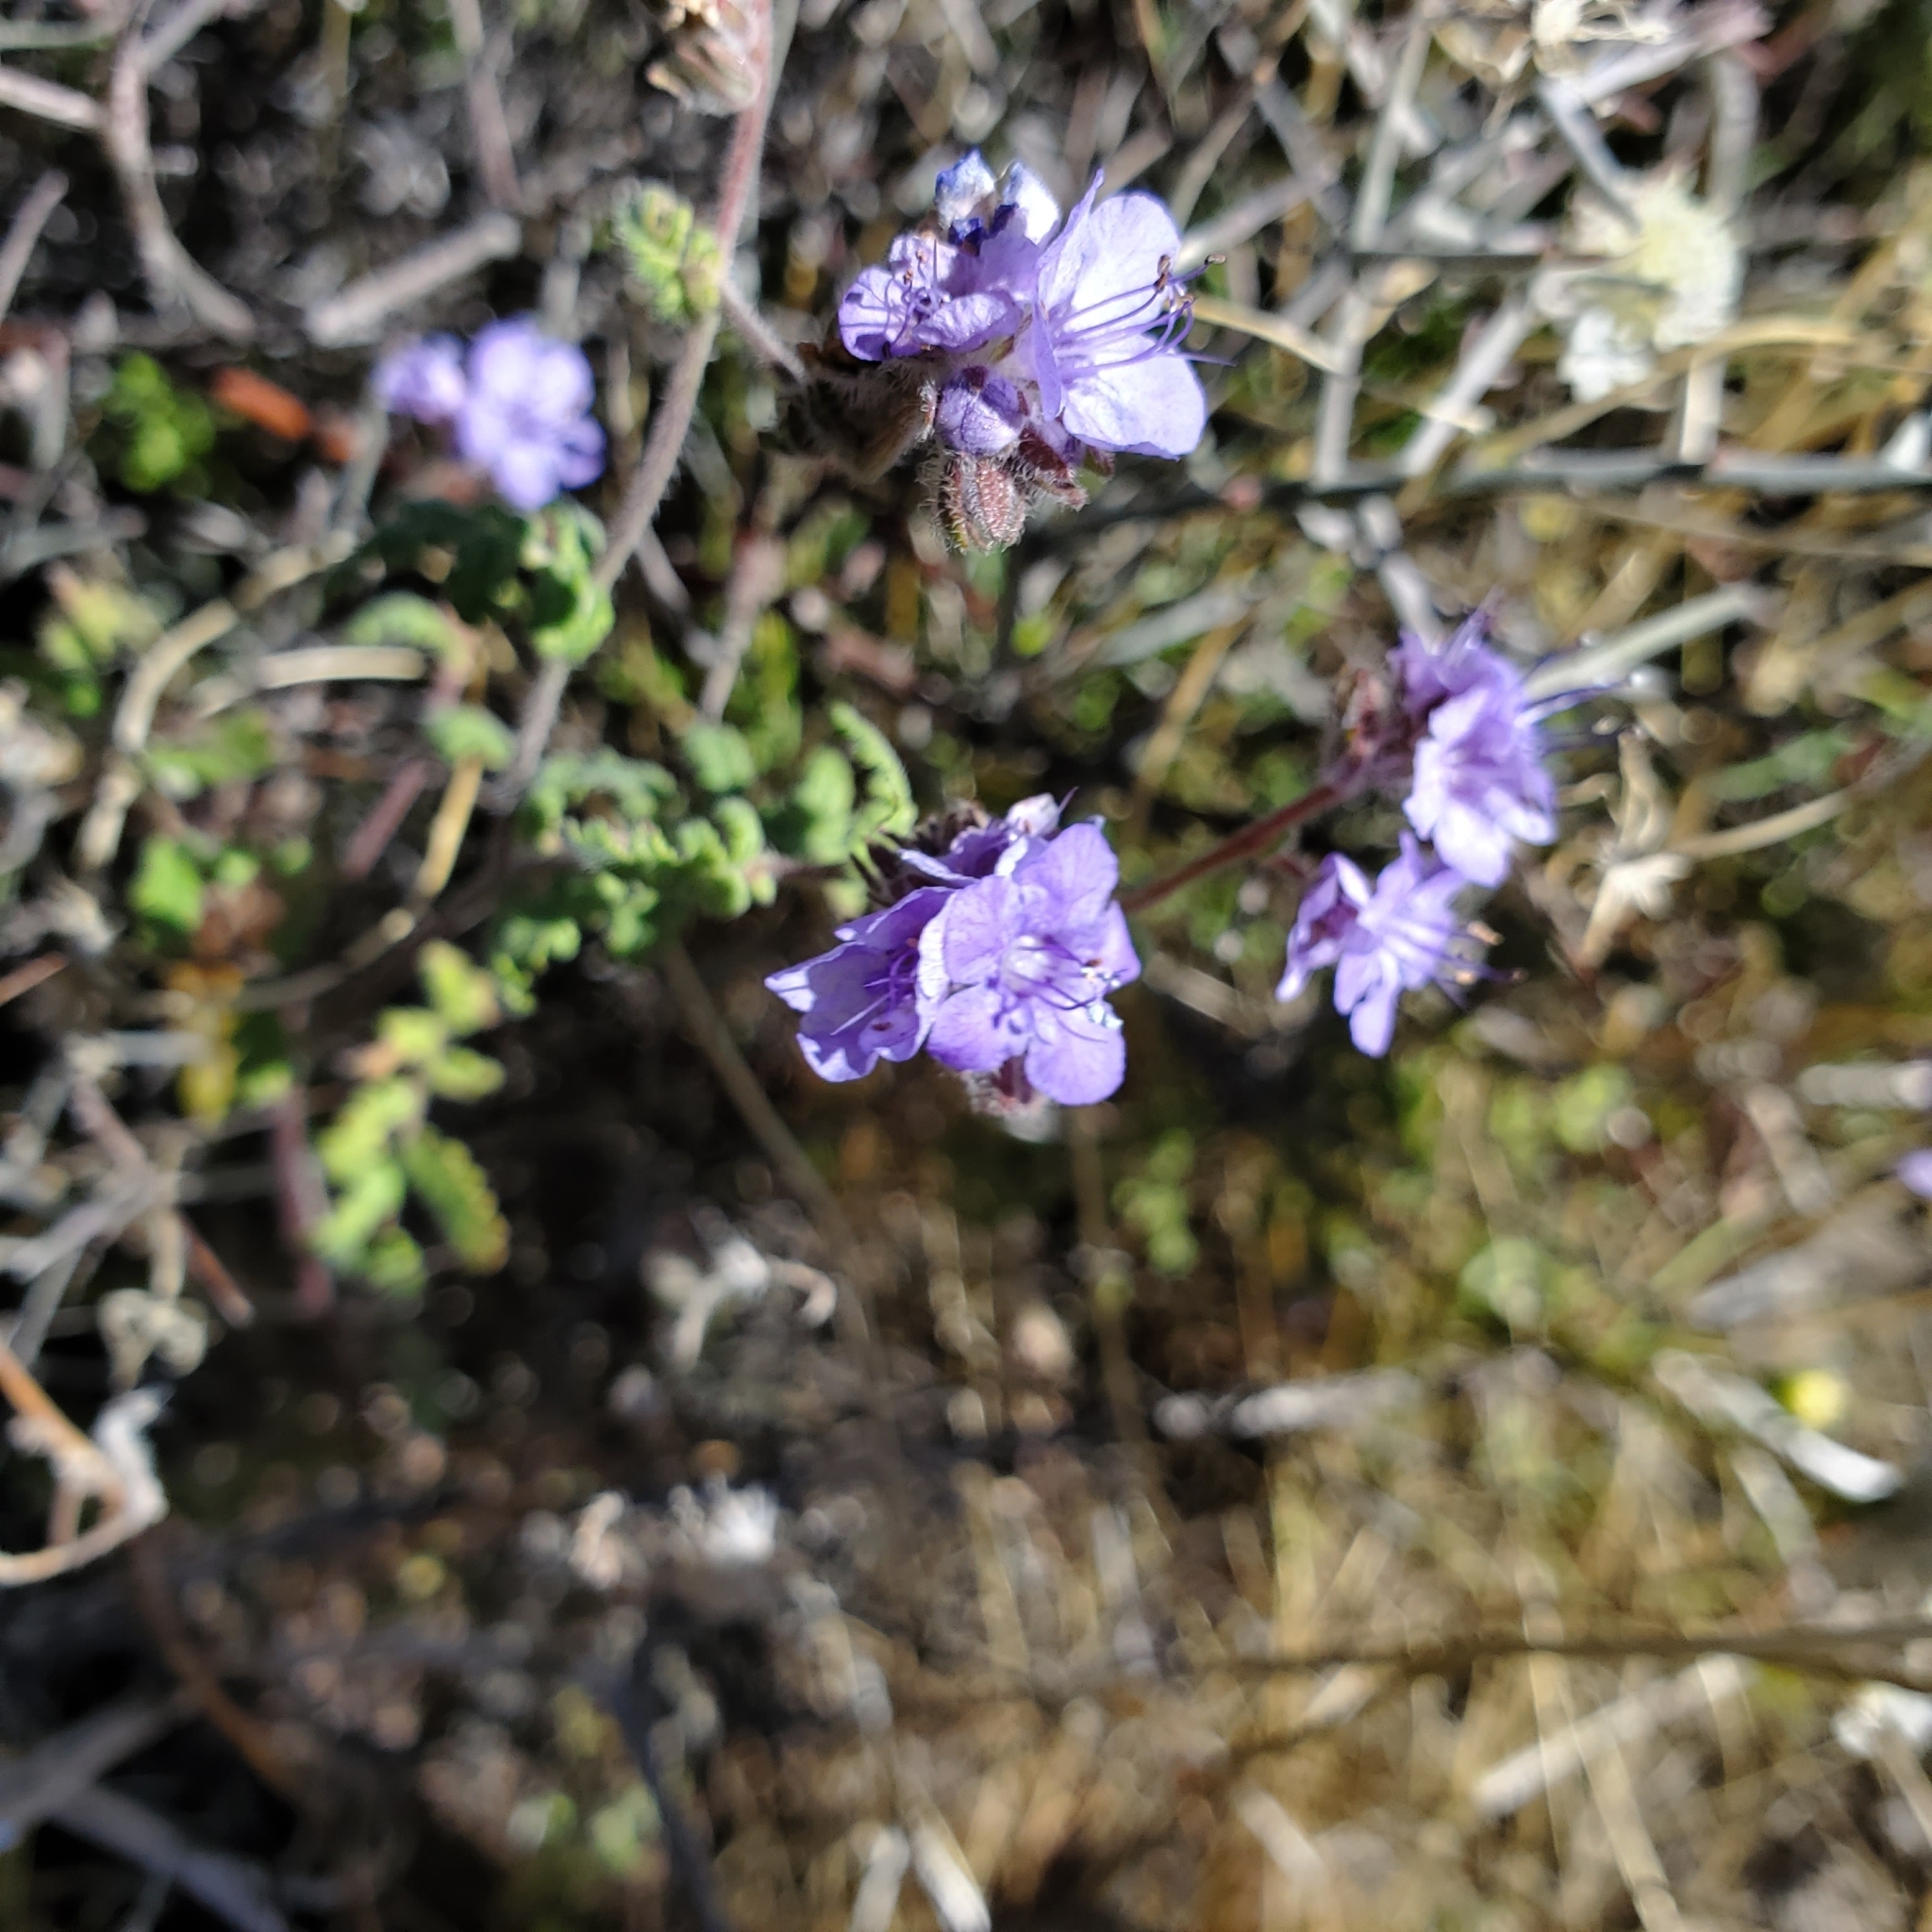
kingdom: Plantae
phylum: Tracheophyta
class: Magnoliopsida
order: Boraginales
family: Hydrophyllaceae
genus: Phacelia
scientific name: Phacelia distans
